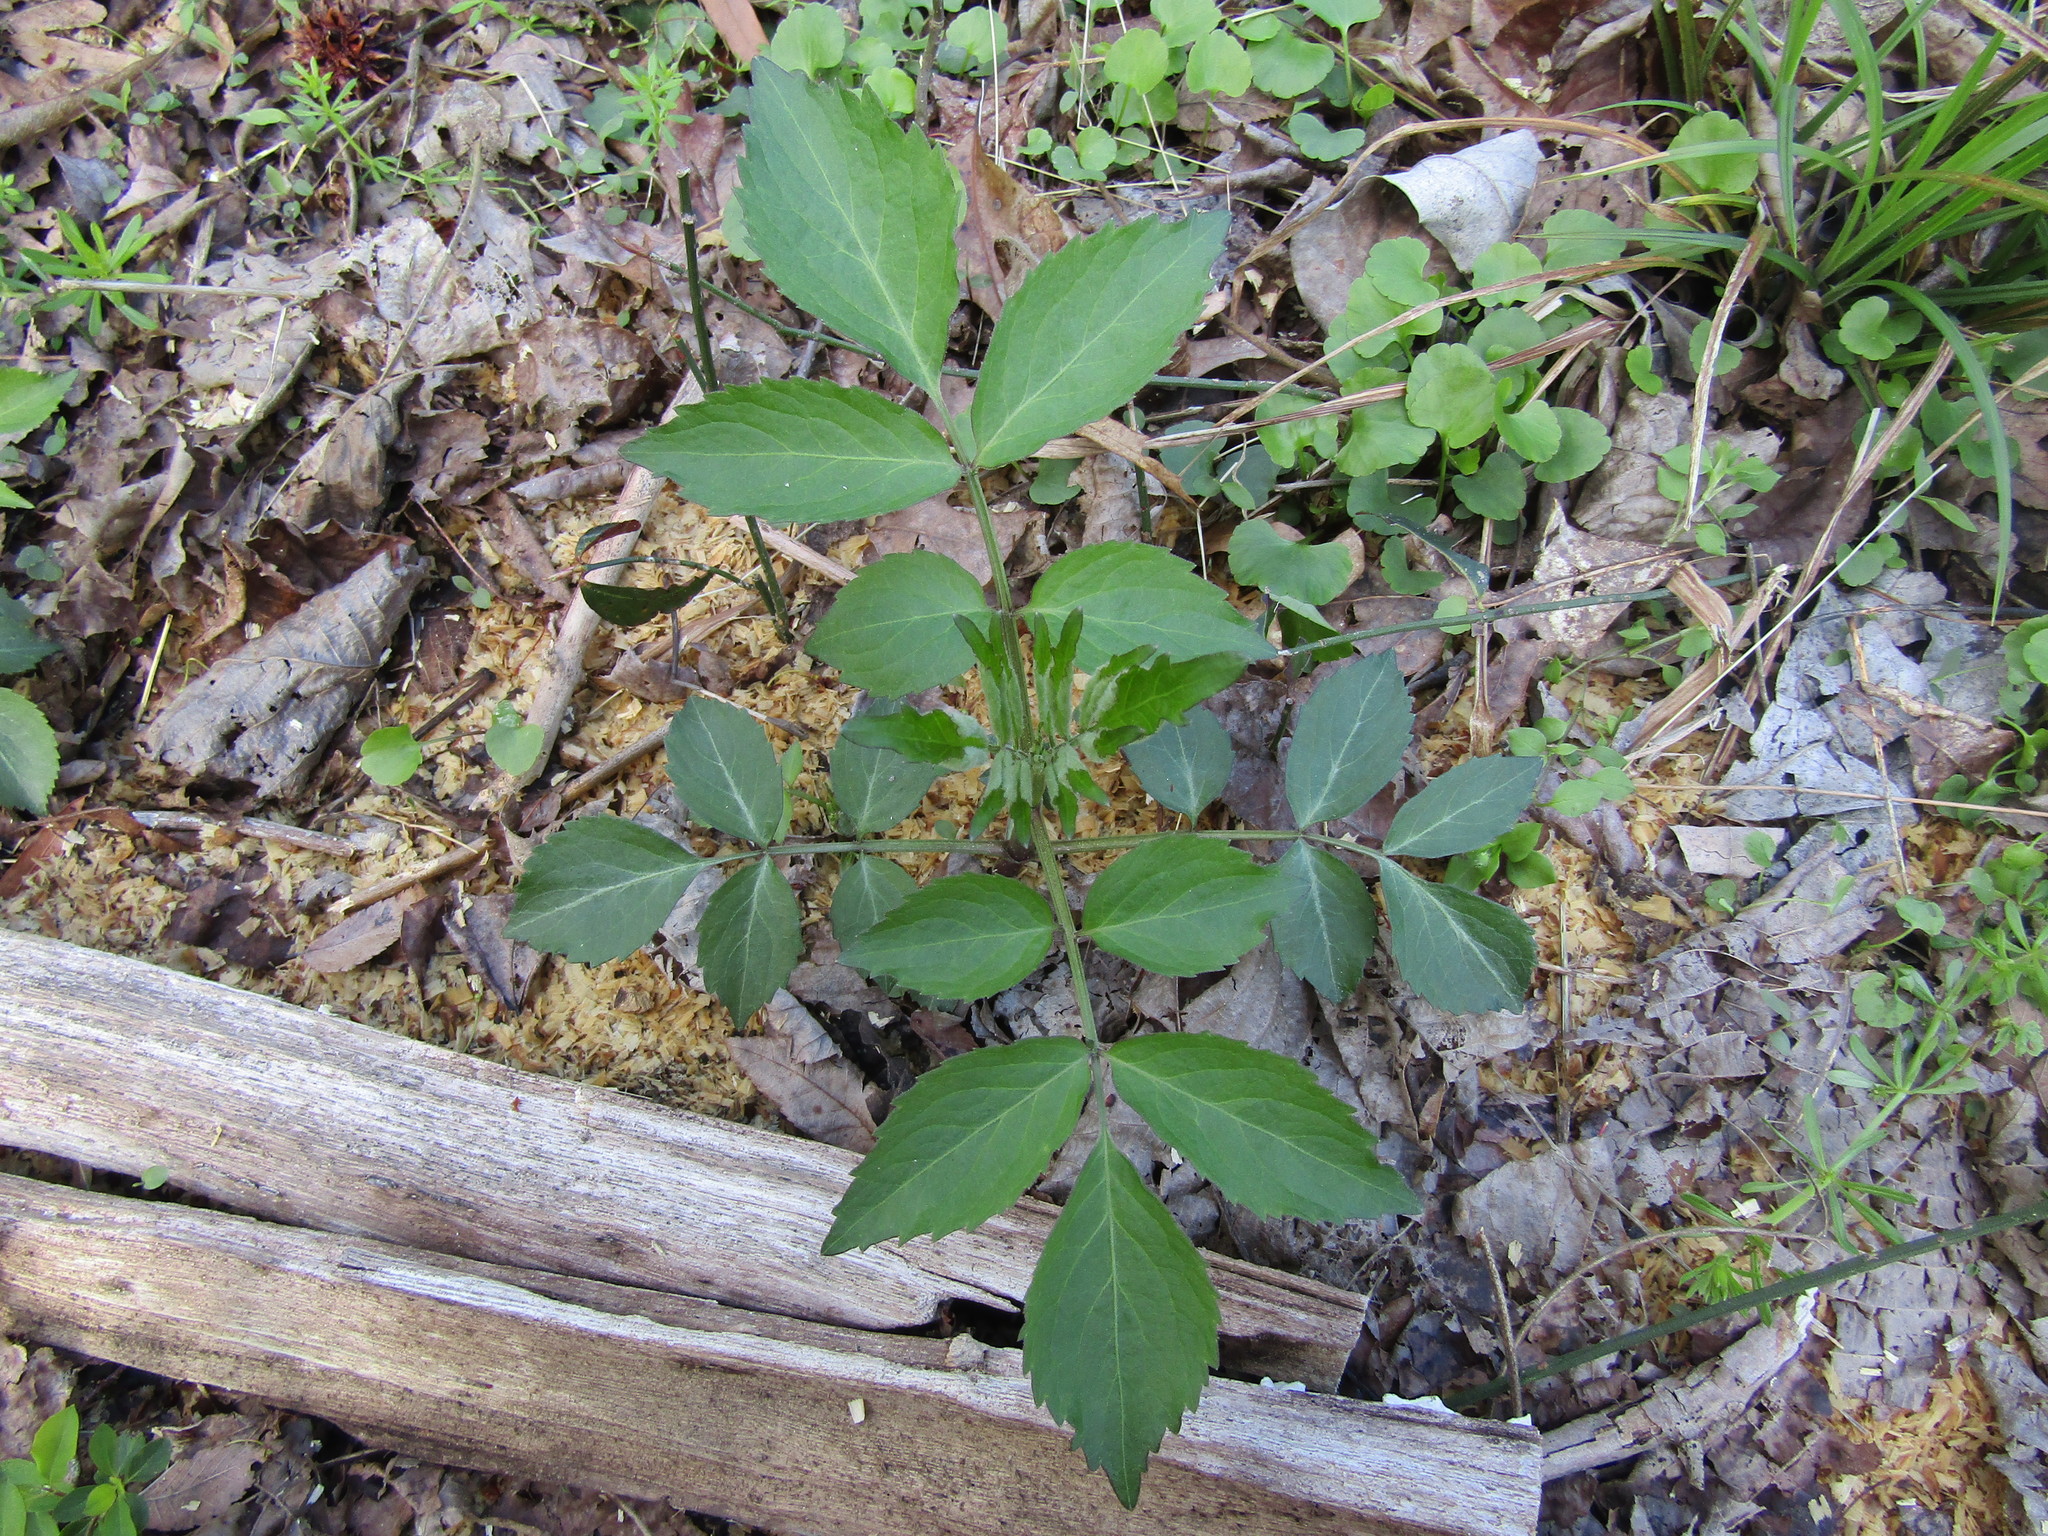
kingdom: Plantae
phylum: Tracheophyta
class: Magnoliopsida
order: Dipsacales
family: Viburnaceae
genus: Sambucus
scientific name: Sambucus canadensis
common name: American elder
